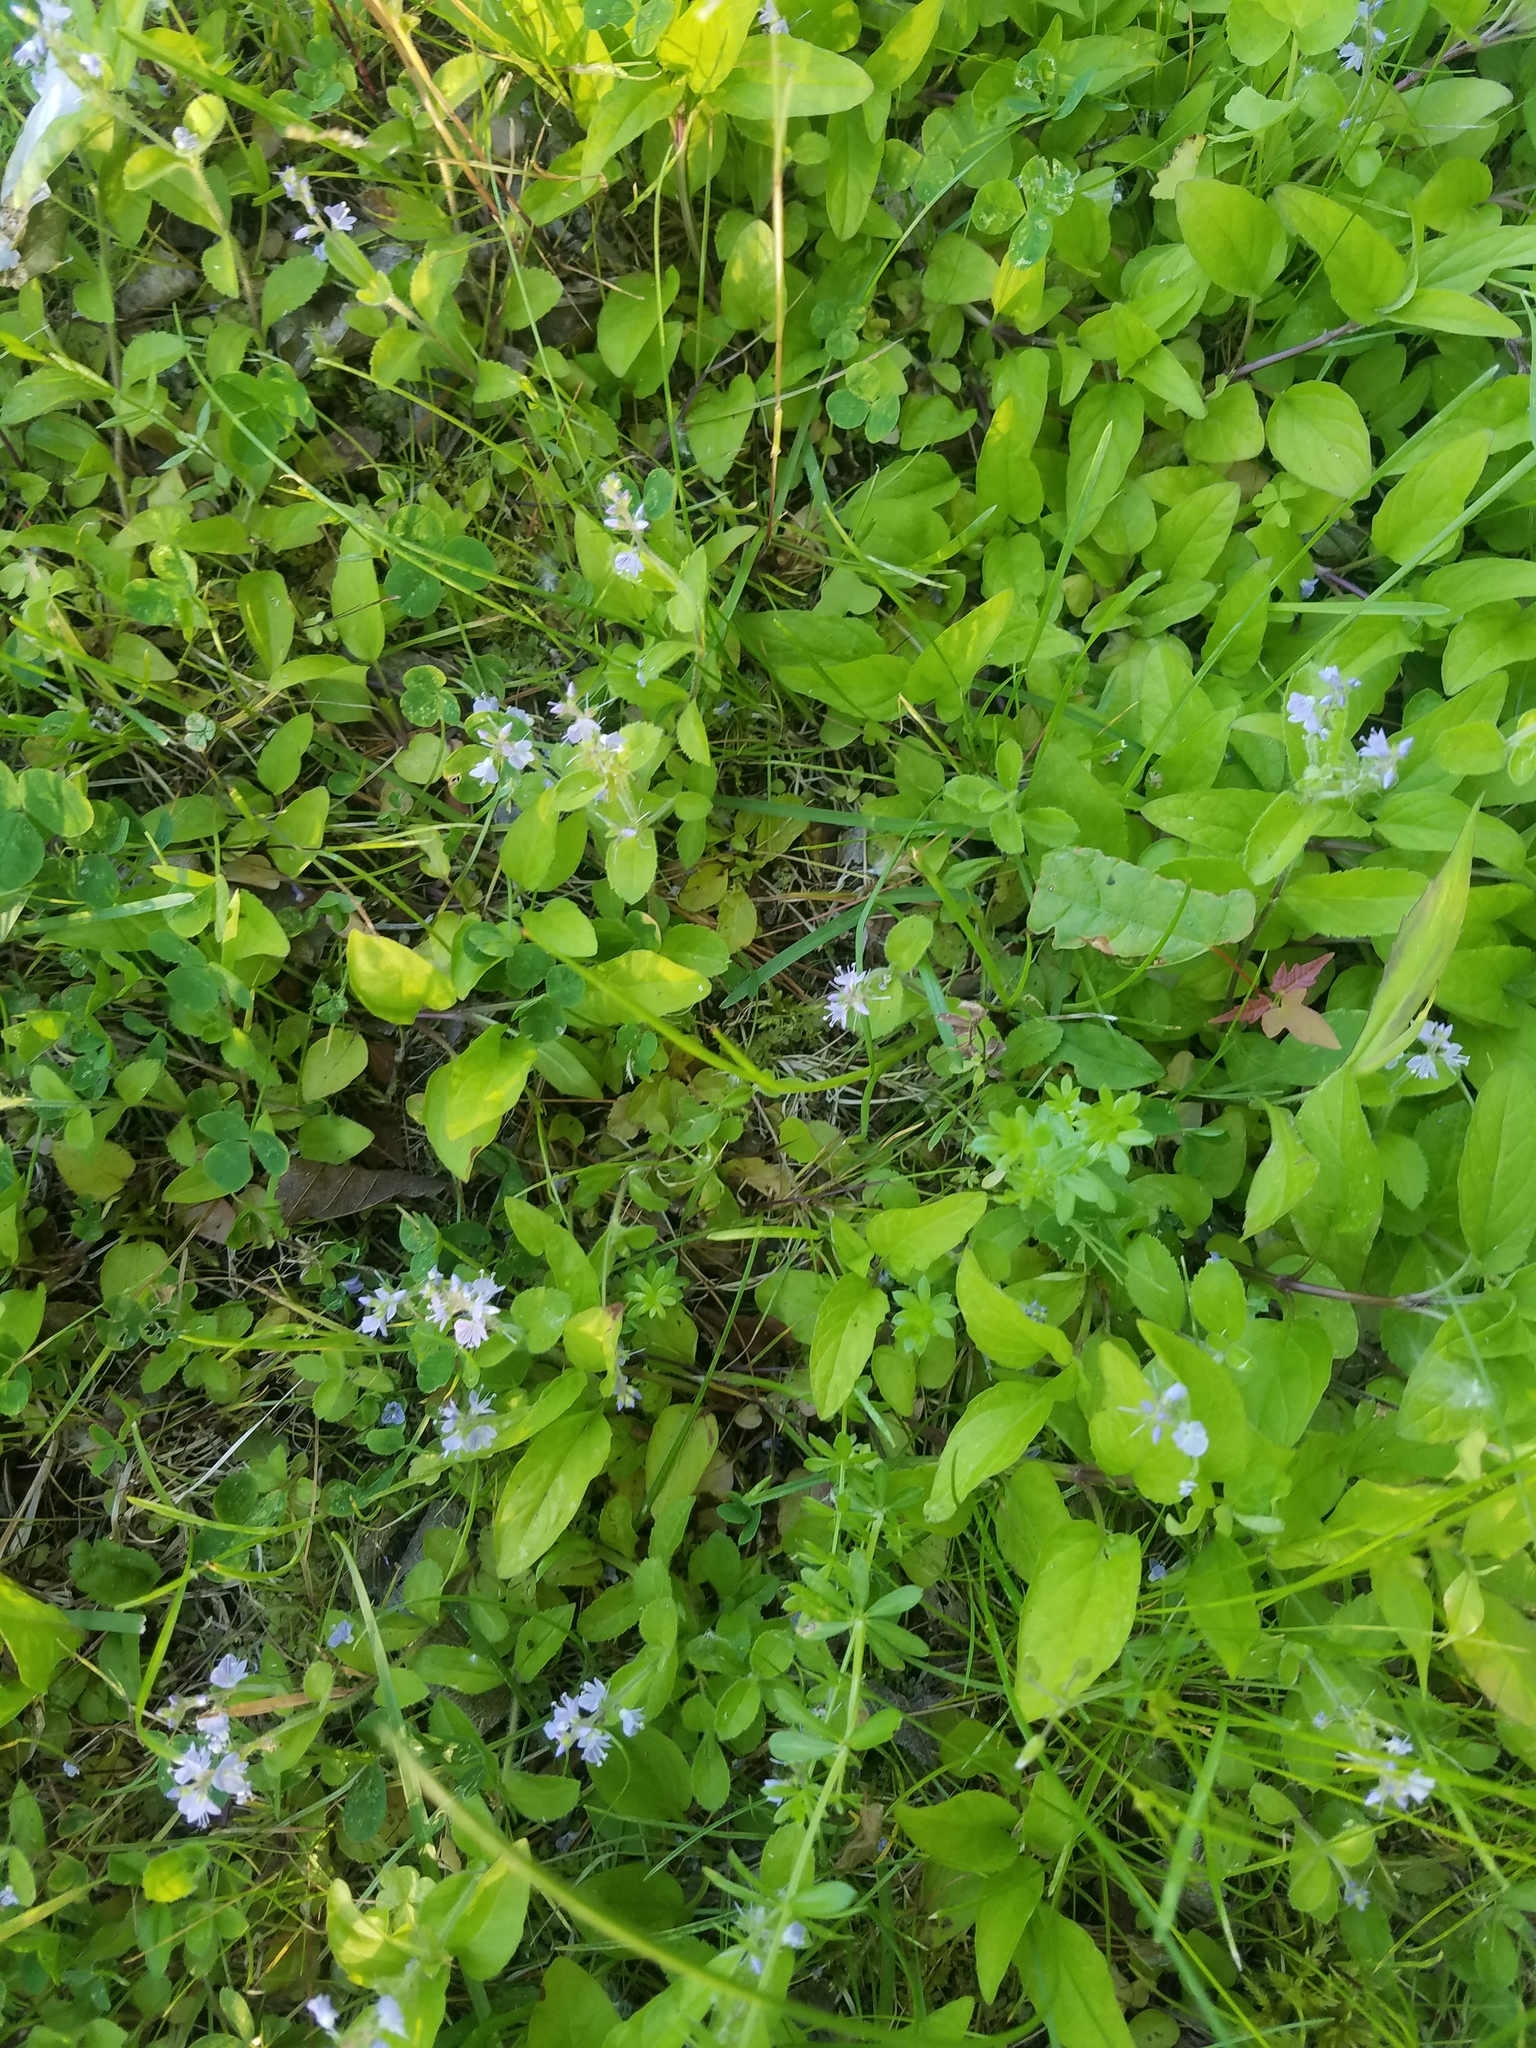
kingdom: Plantae
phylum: Tracheophyta
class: Magnoliopsida
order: Lamiales
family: Plantaginaceae
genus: Veronica
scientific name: Veronica officinalis
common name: Common speedwell
